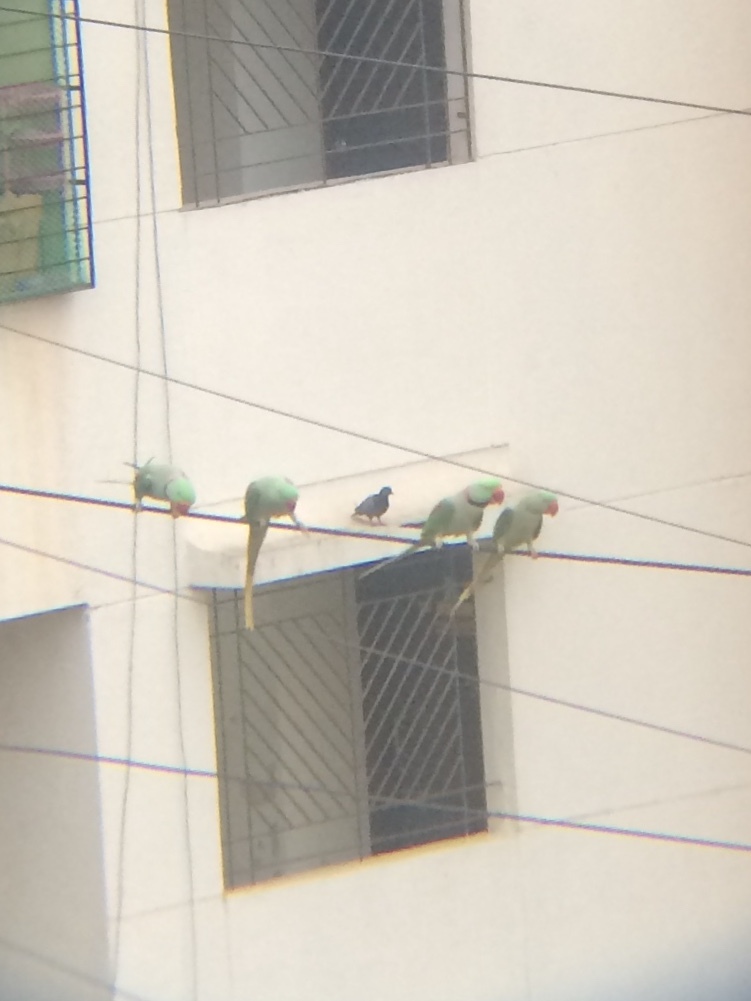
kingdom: Animalia
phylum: Chordata
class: Aves
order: Psittaciformes
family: Psittacidae
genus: Psittacula
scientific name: Psittacula eupatria
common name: Alexandrine parakeet
